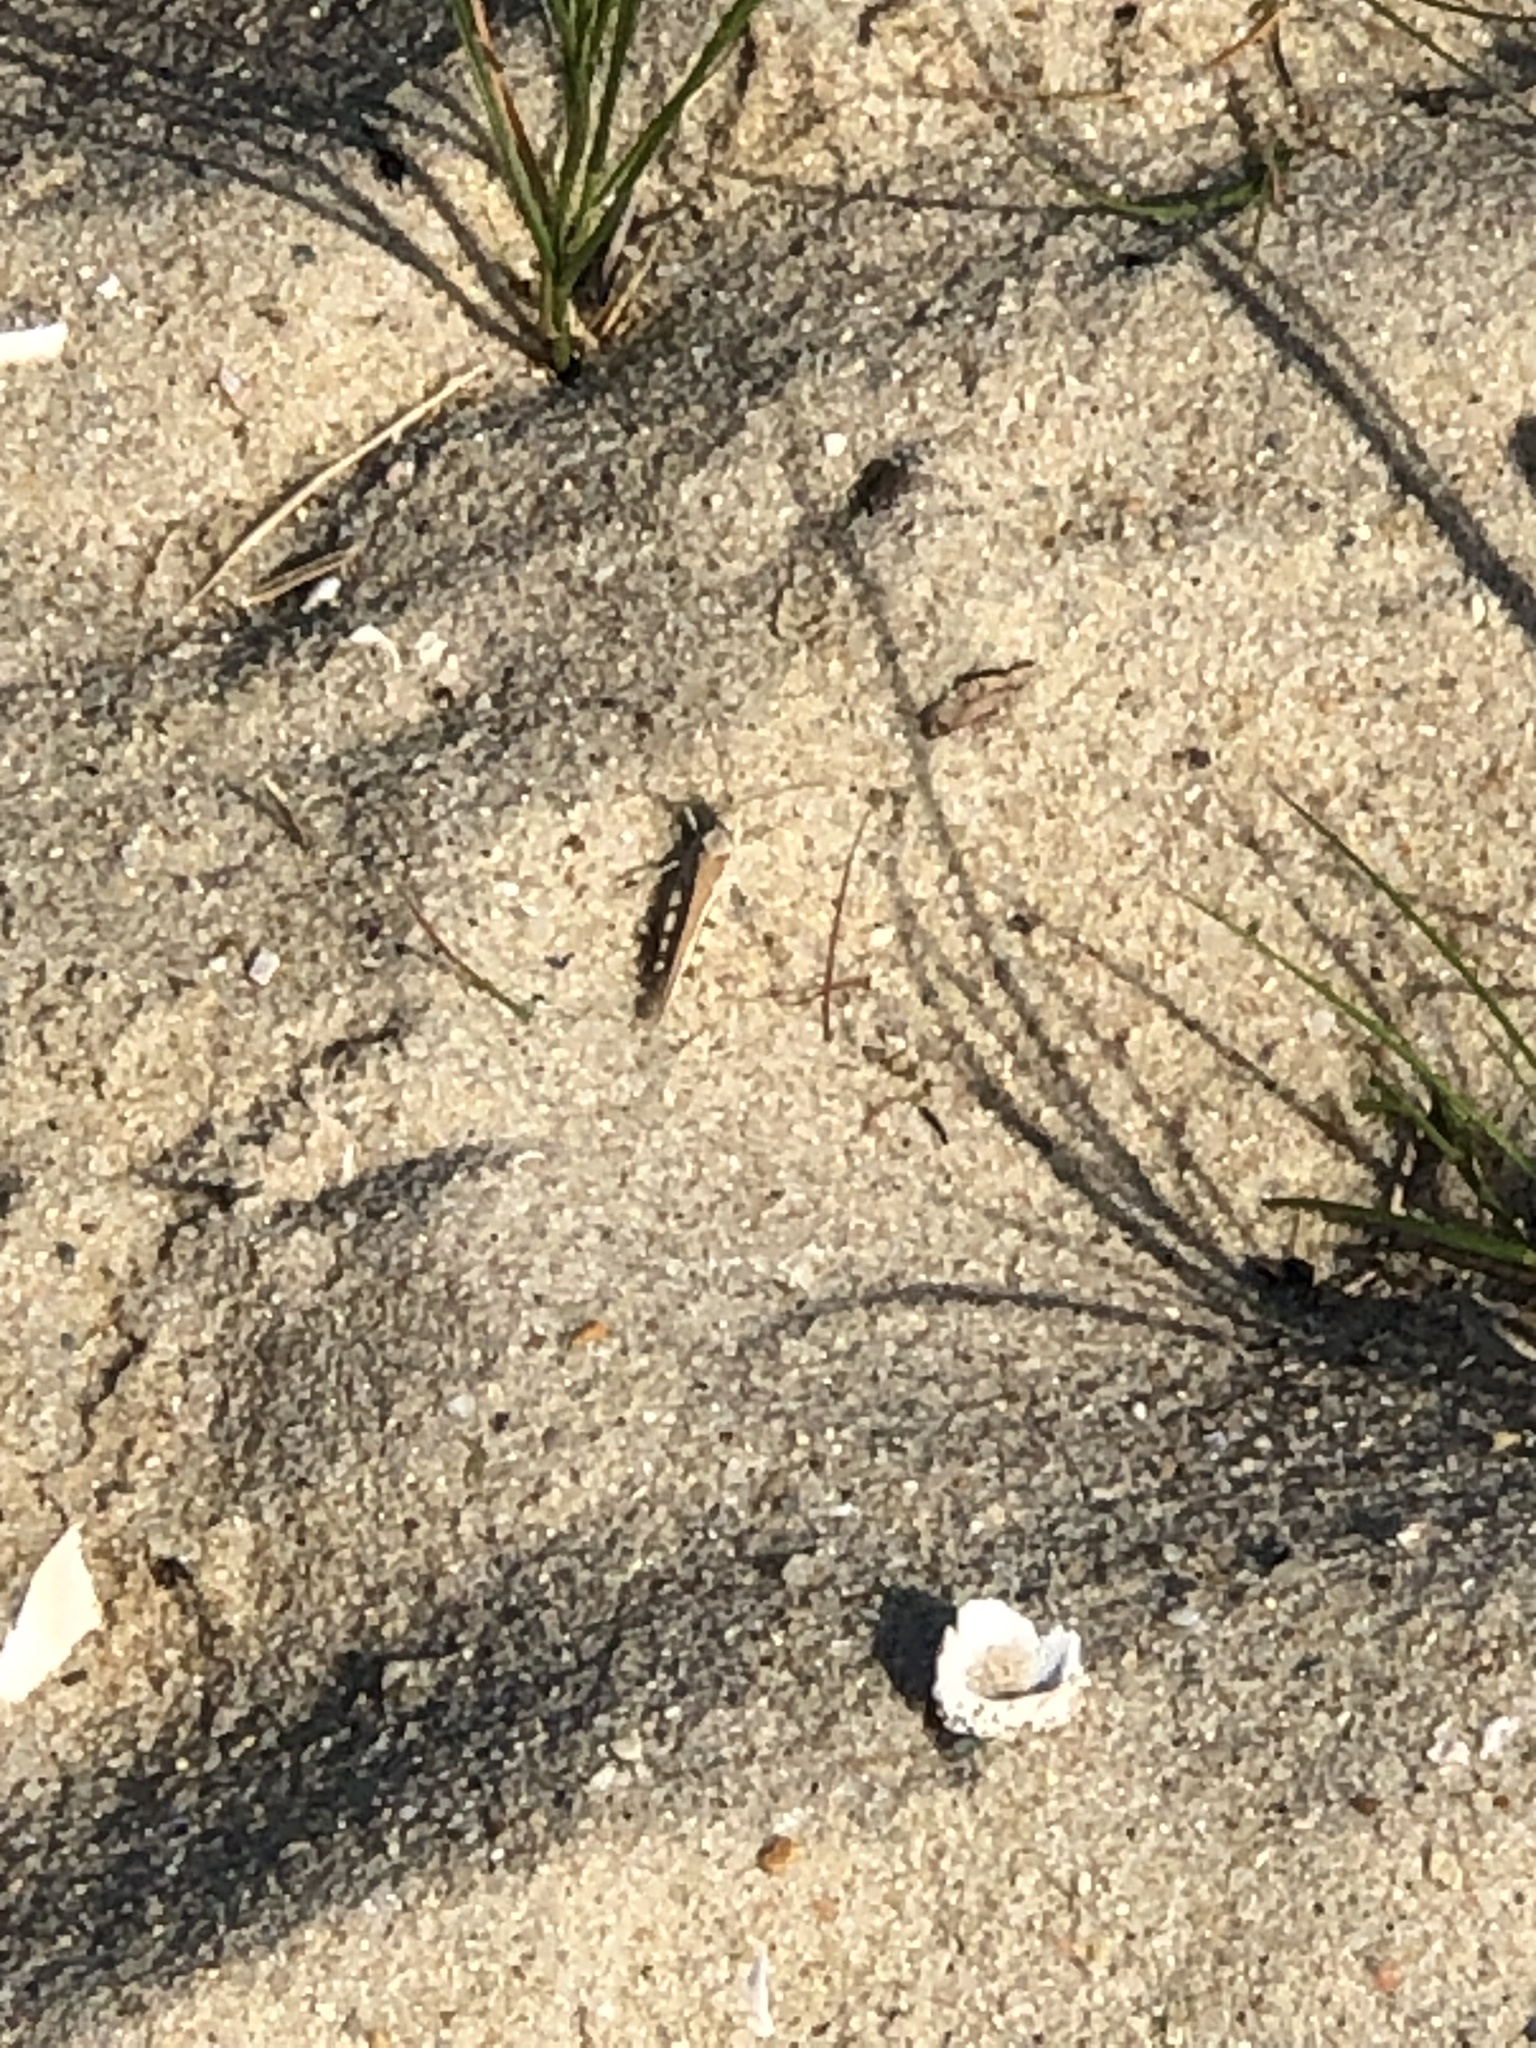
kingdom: Animalia
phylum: Arthropoda
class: Insecta
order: Orthoptera
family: Acrididae
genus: Trimerotropis
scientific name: Trimerotropis maritima
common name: Seaside locust
